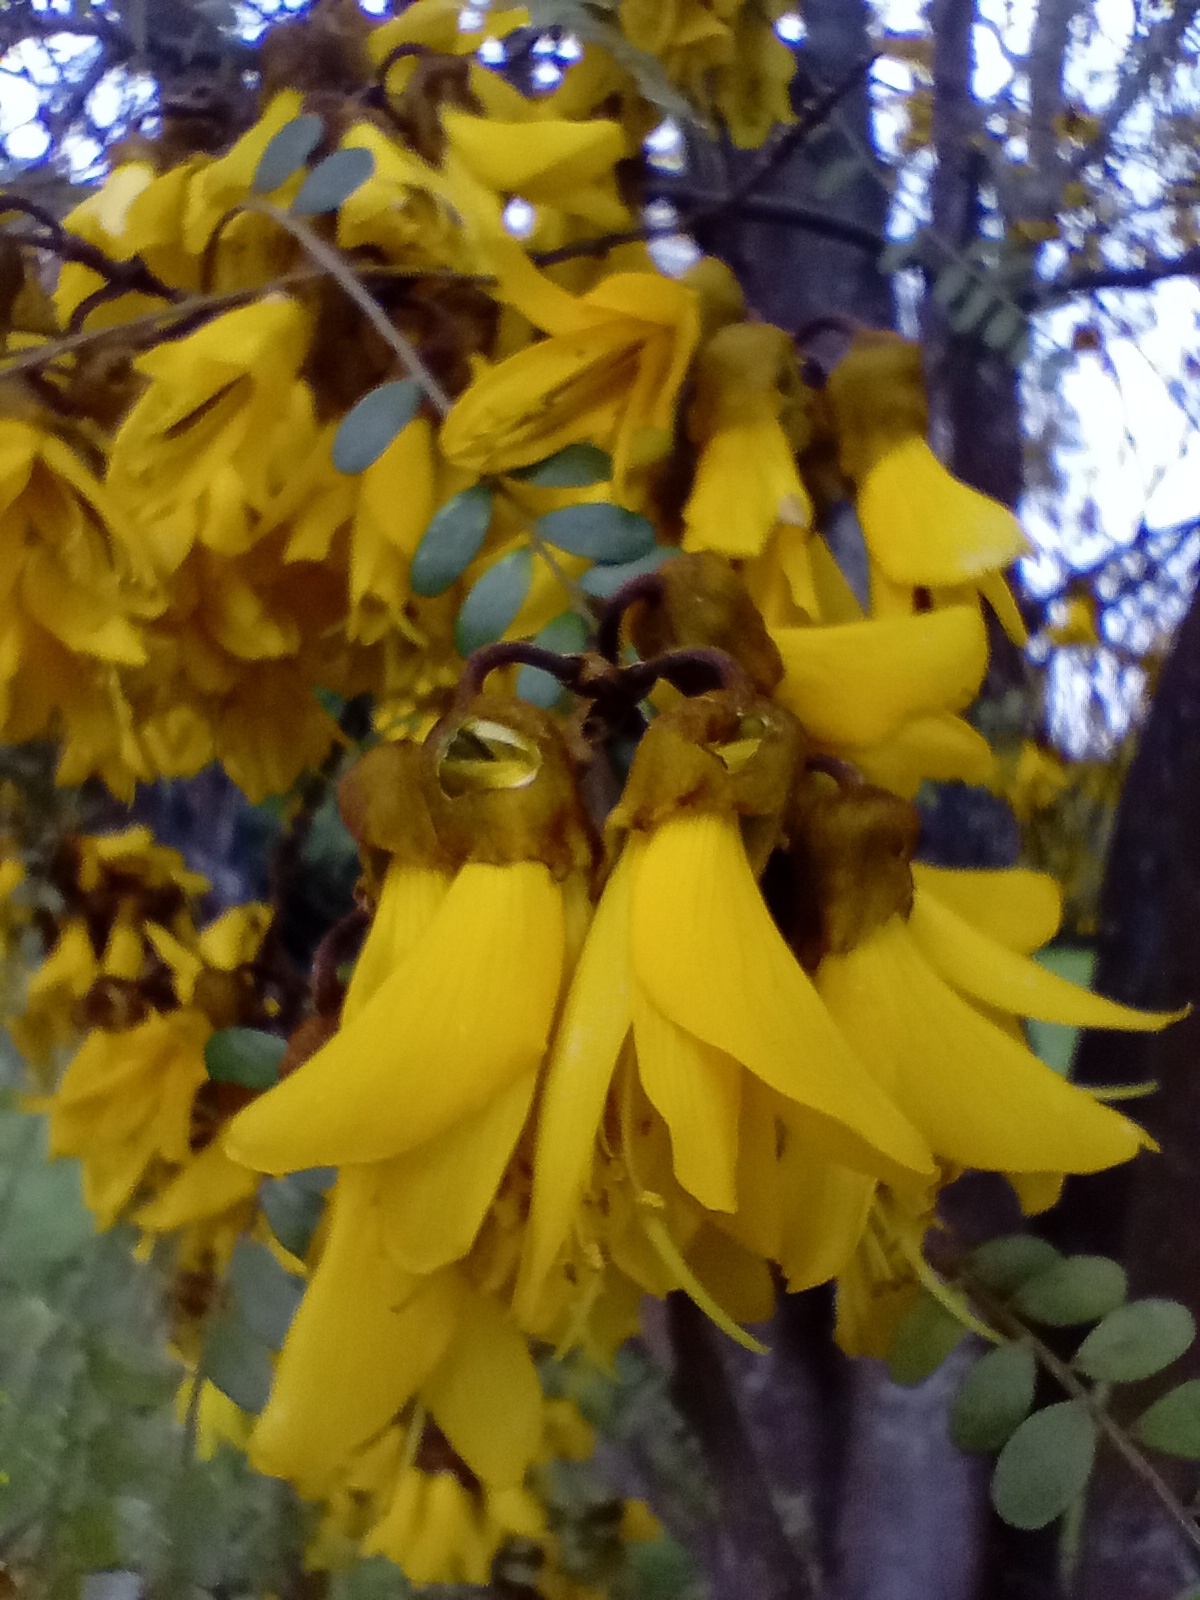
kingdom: Plantae
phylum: Tracheophyta
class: Magnoliopsida
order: Fabales
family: Fabaceae
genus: Sophora
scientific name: Sophora microphylla
